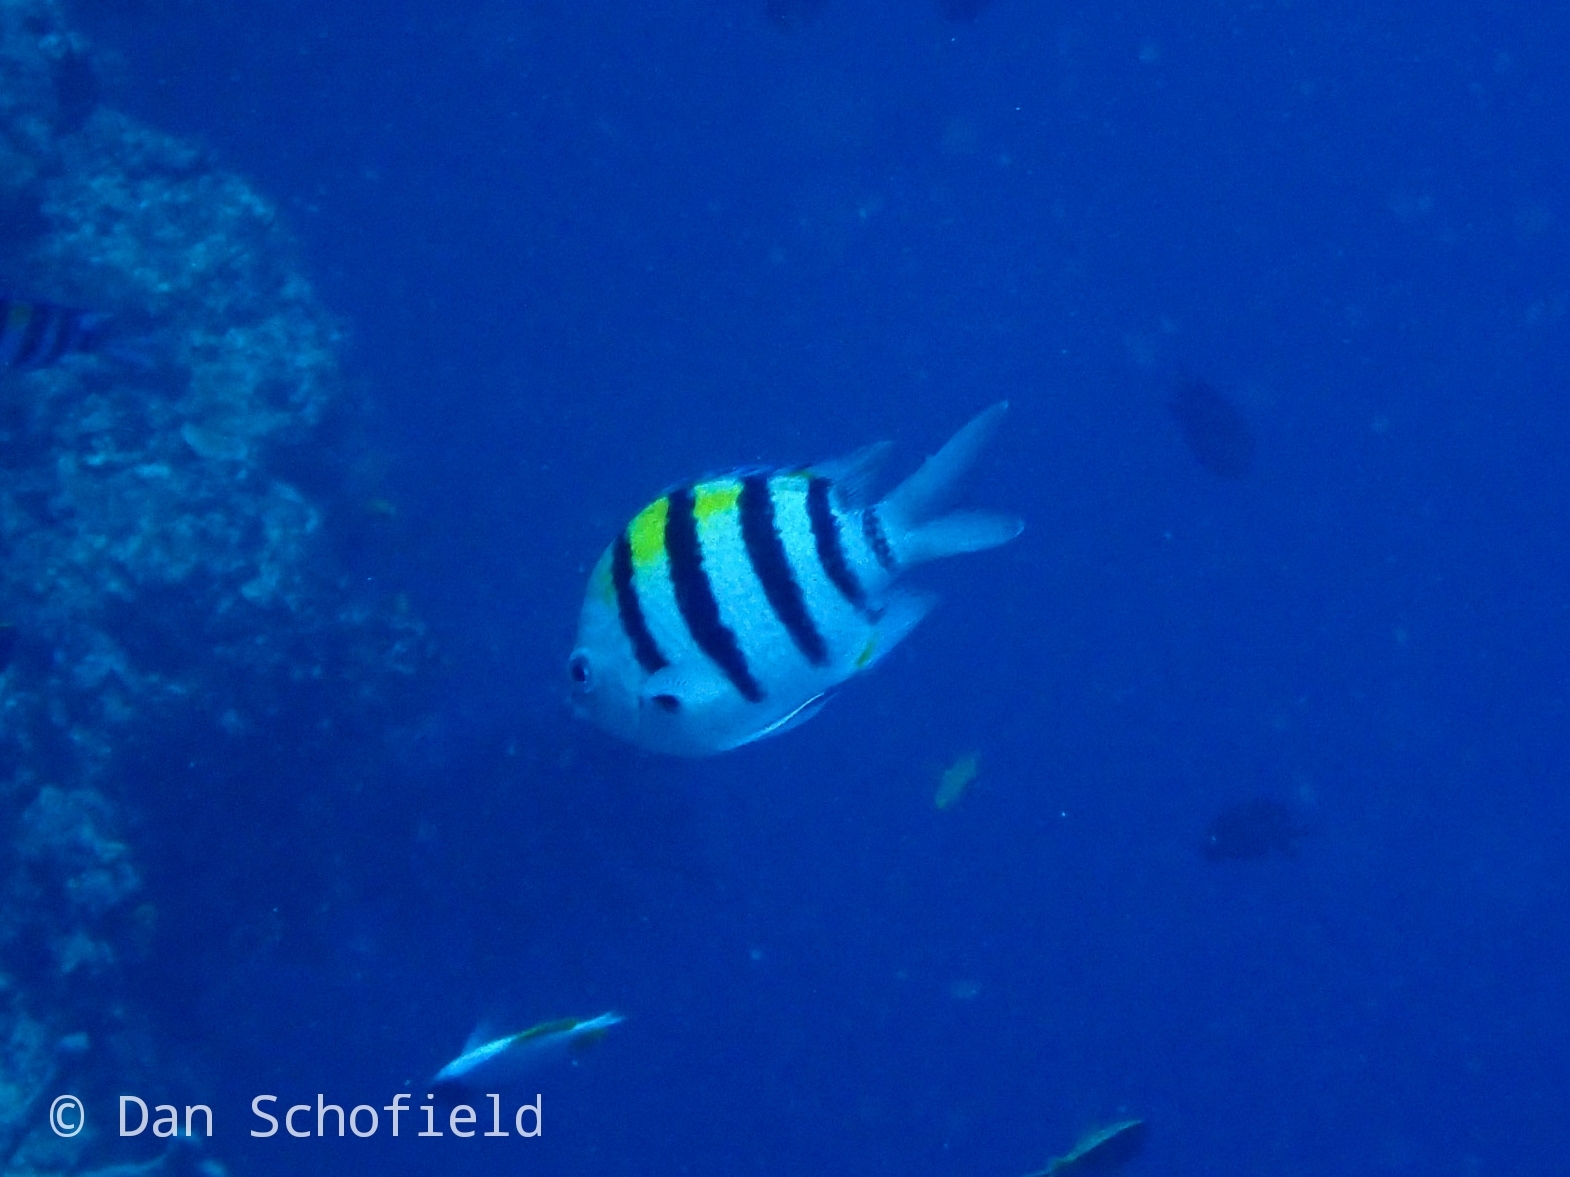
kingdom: Animalia
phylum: Chordata
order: Perciformes
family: Pomacentridae
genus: Abudefduf
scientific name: Abudefduf vaigiensis
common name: Indo-pacific sergeant
